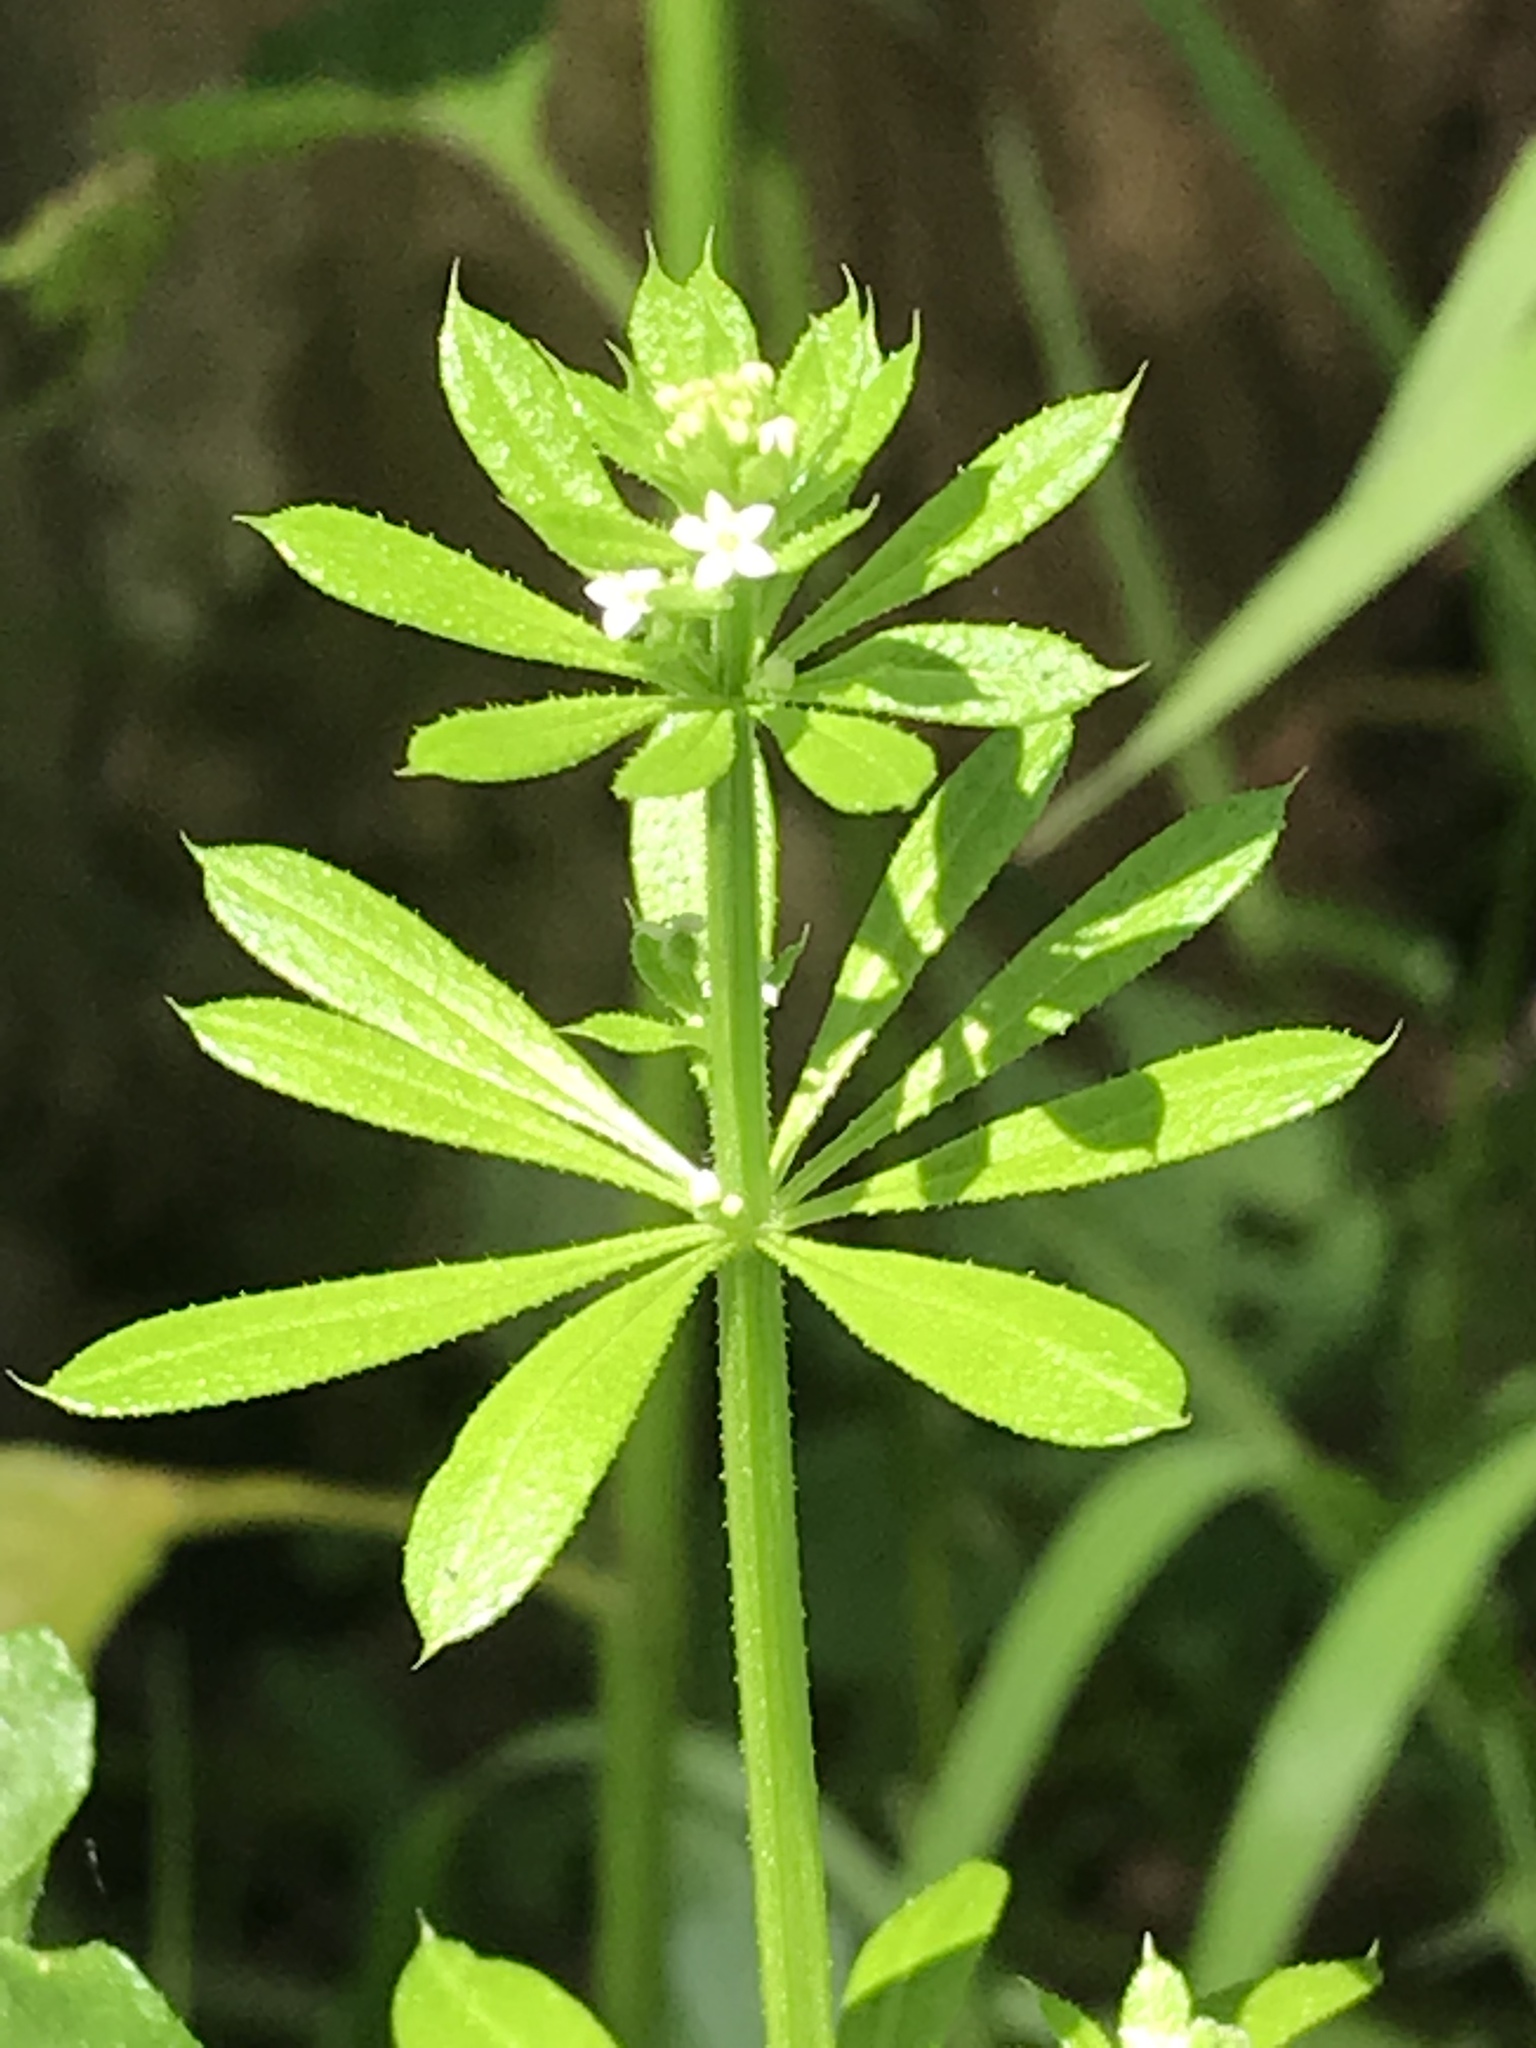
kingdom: Plantae
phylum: Tracheophyta
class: Magnoliopsida
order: Gentianales
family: Rubiaceae
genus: Galium
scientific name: Galium aparine
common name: Cleavers
